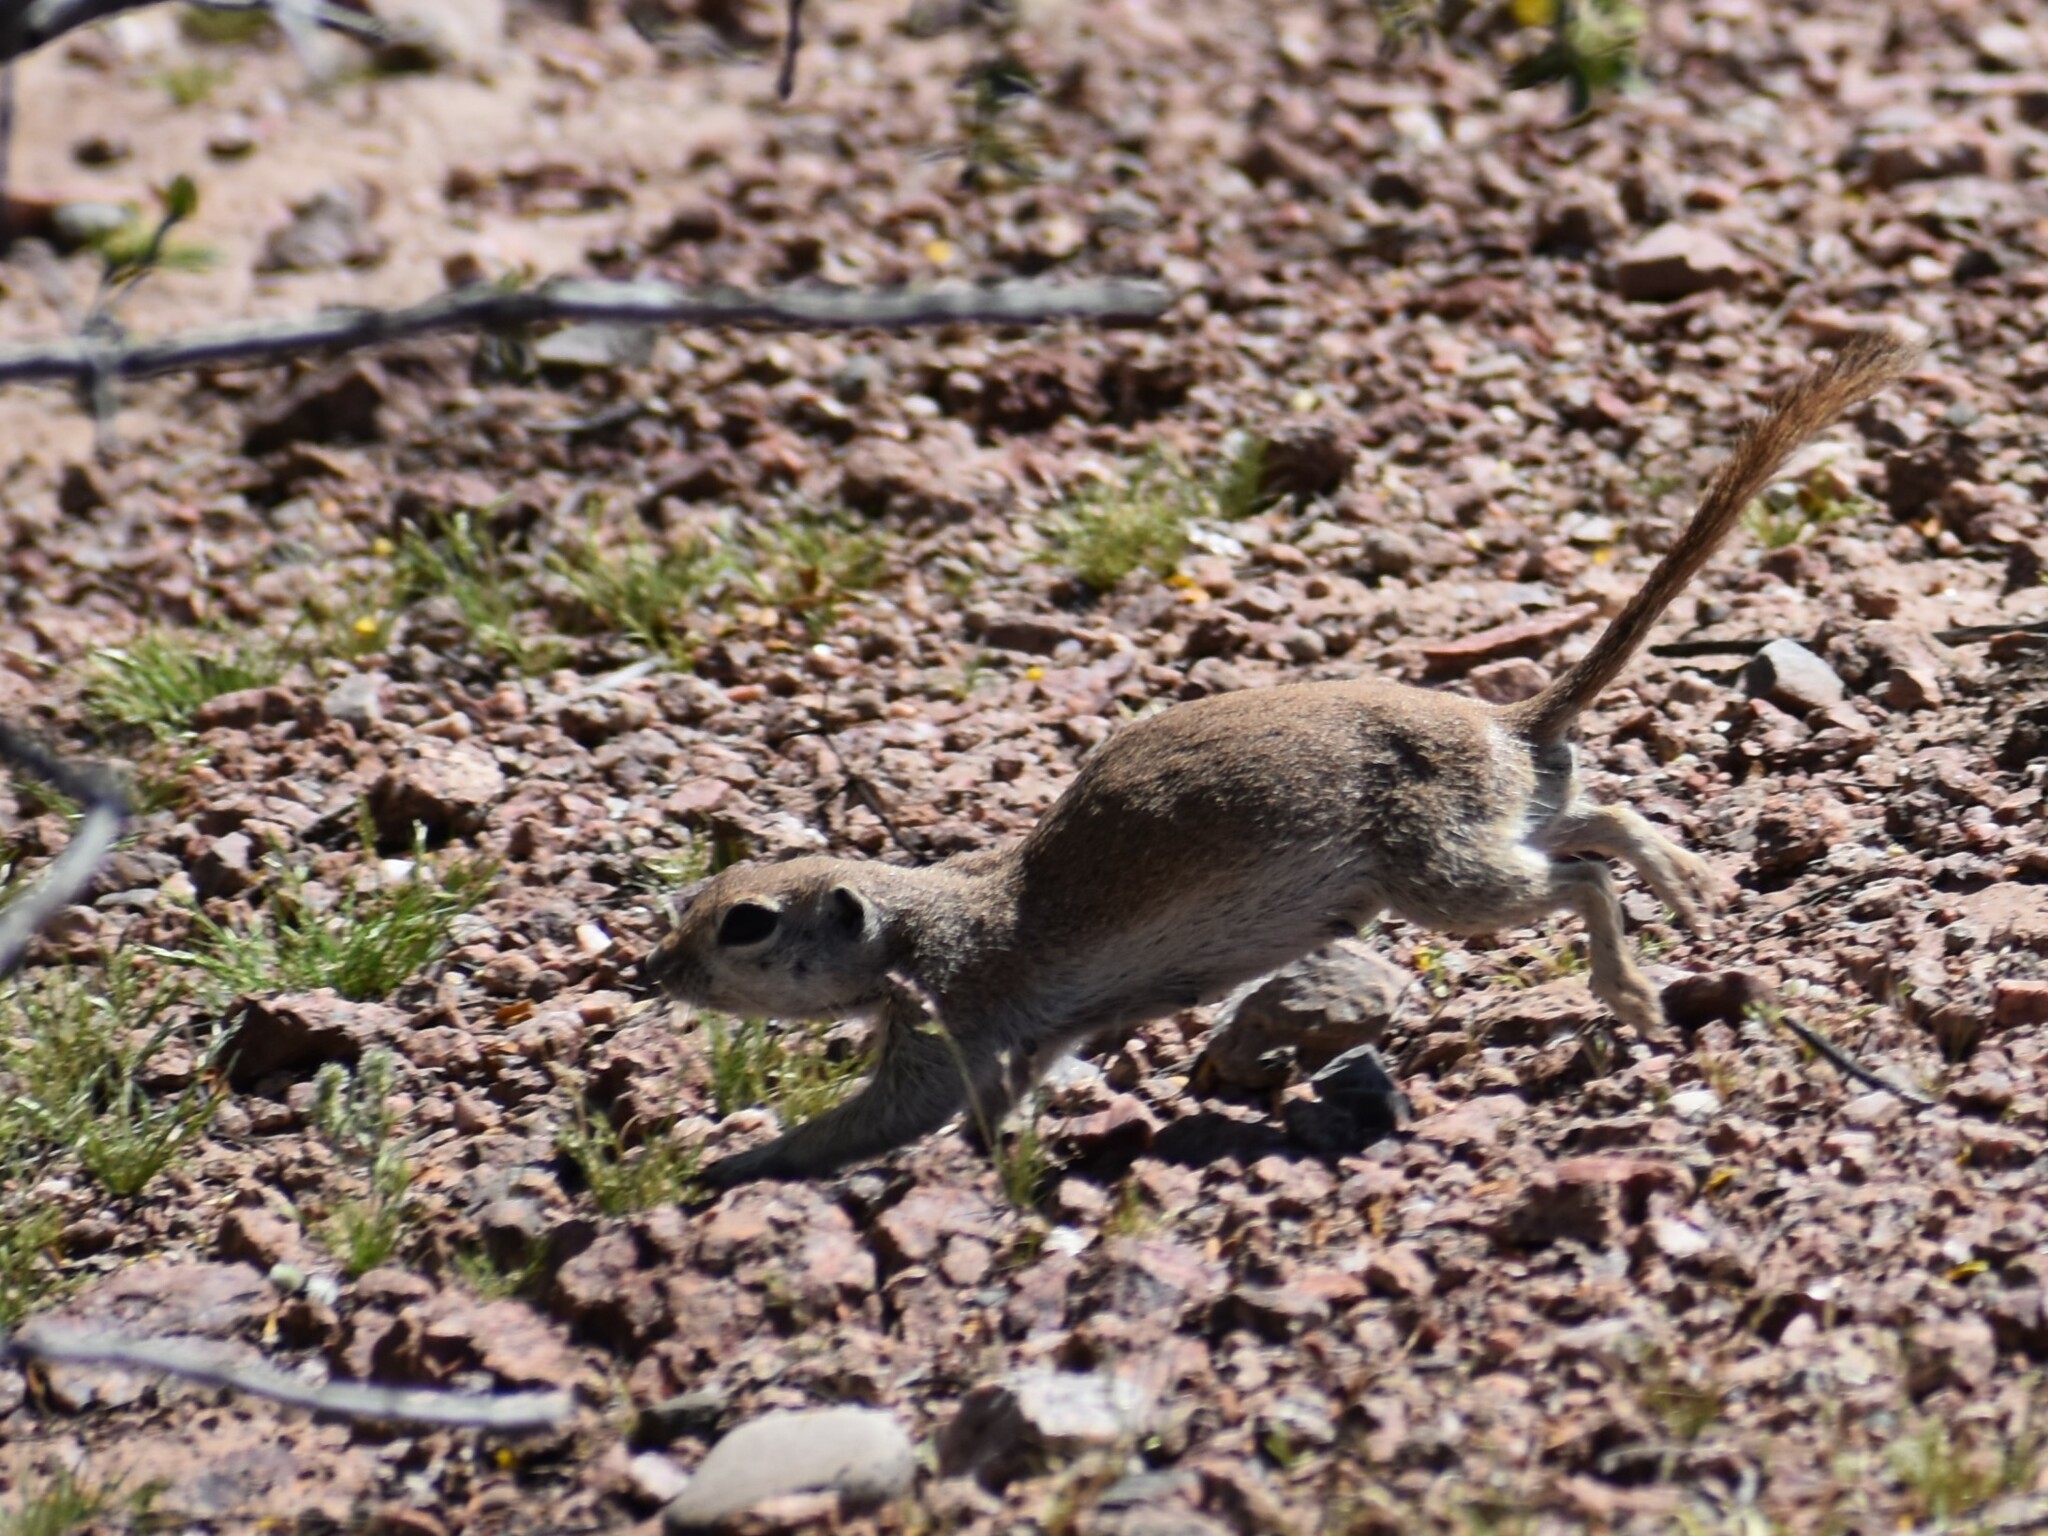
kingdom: Animalia
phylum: Chordata
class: Mammalia
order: Rodentia
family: Sciuridae
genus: Xerospermophilus
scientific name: Xerospermophilus tereticaudus
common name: Round-tailed ground squirrel
